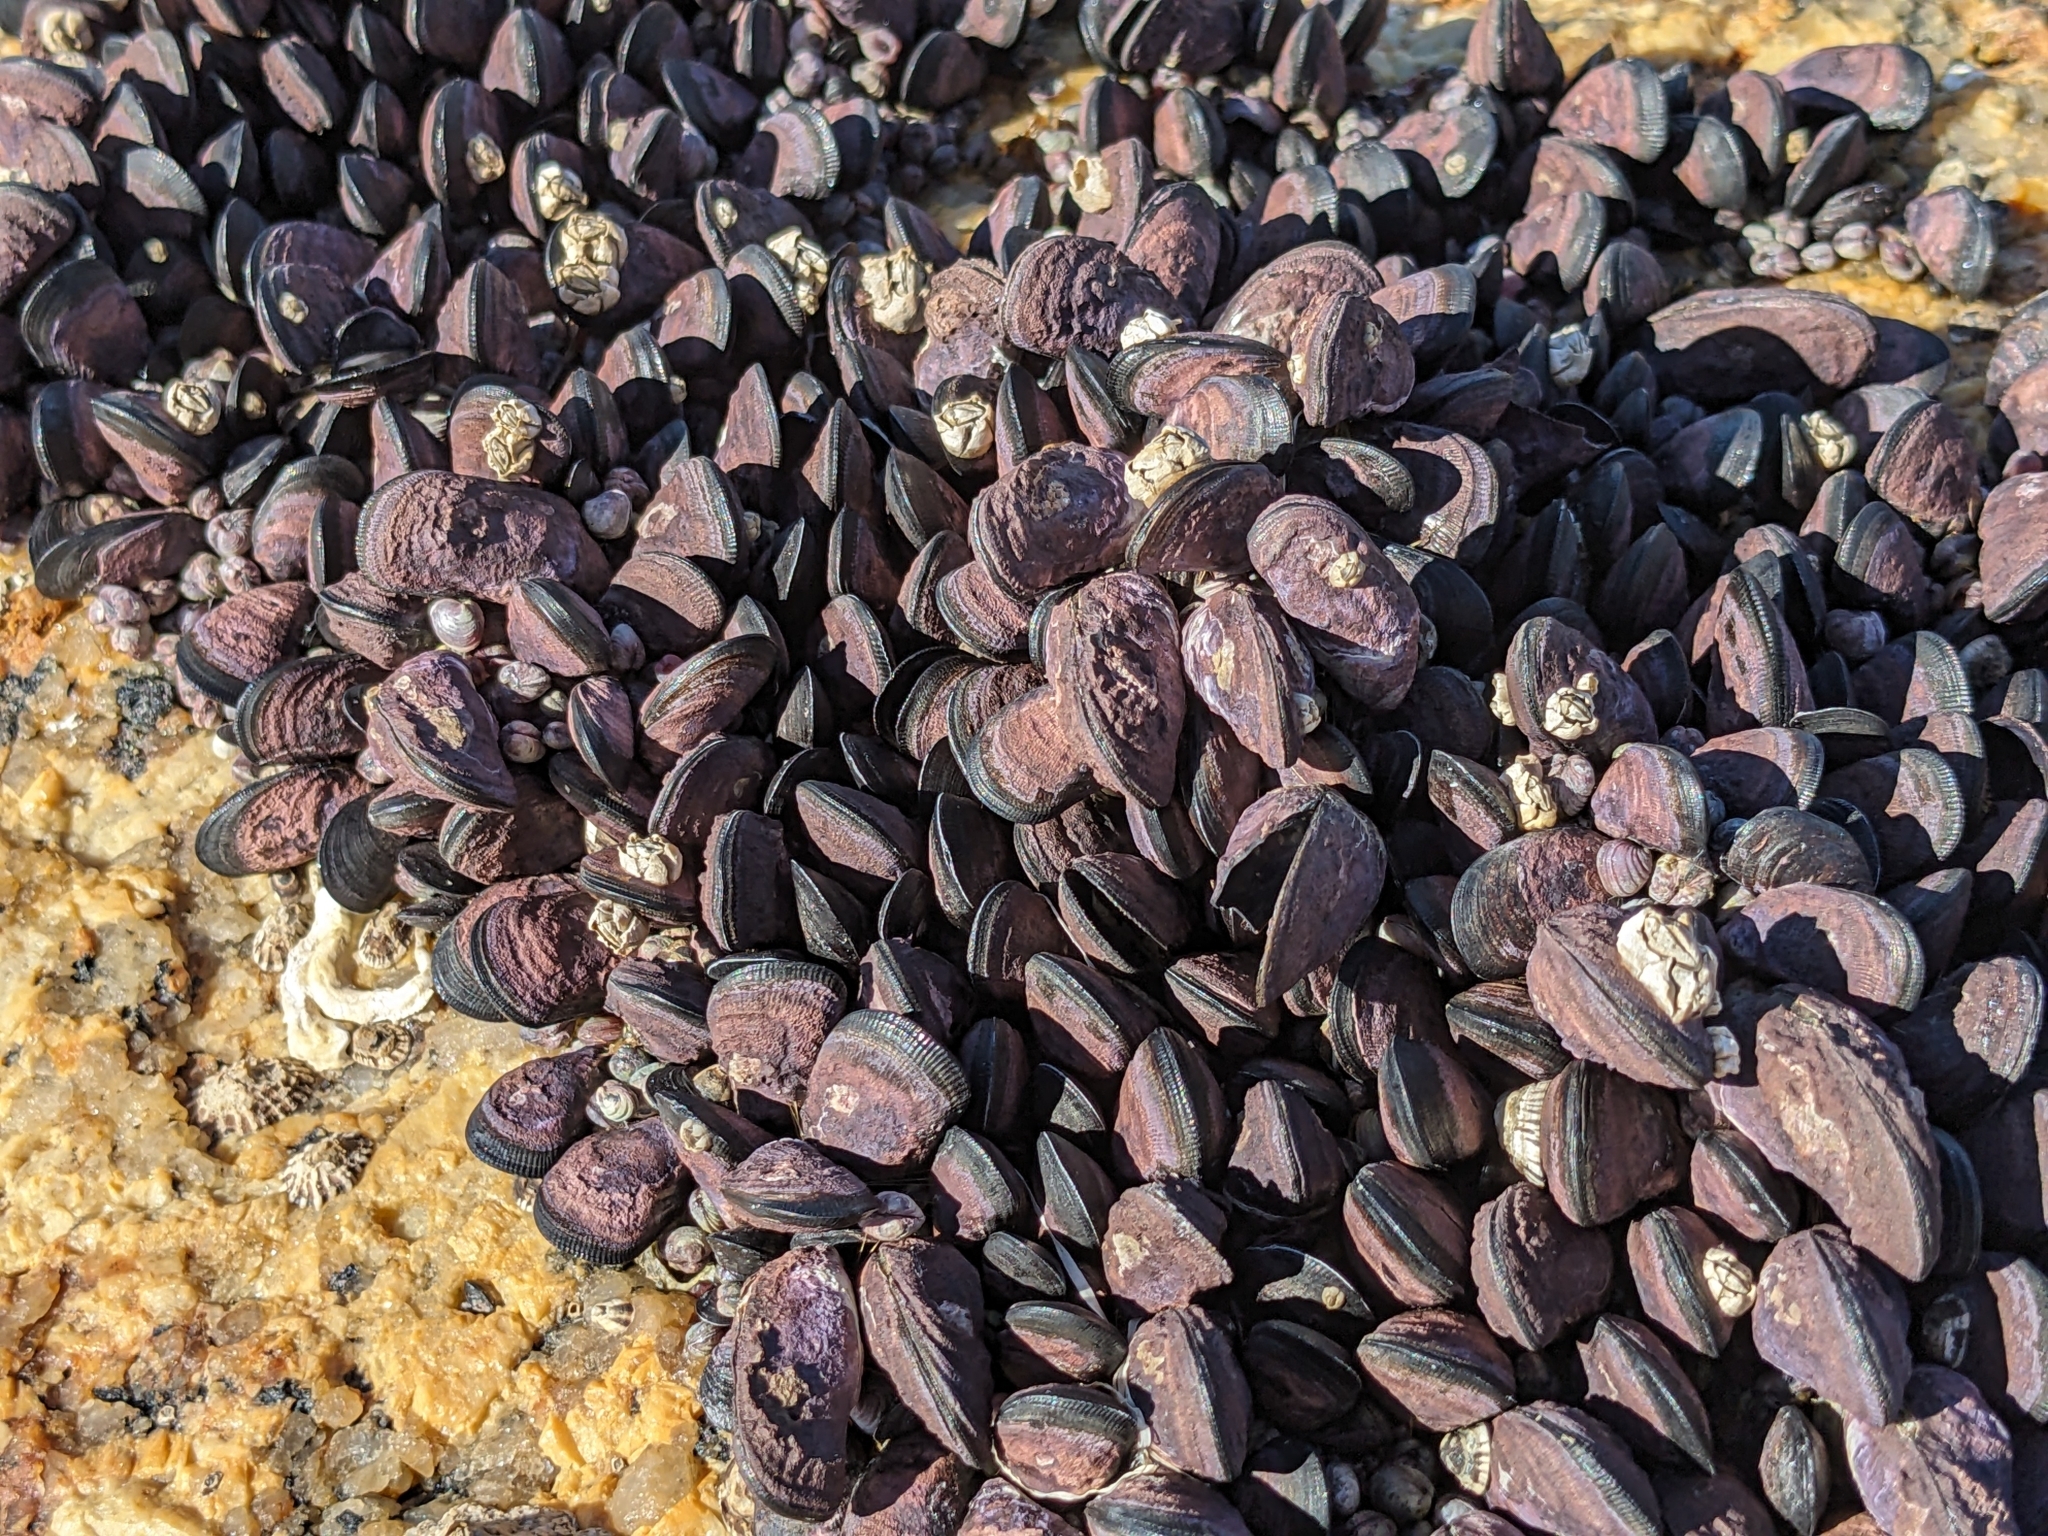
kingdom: Animalia
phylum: Mollusca
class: Bivalvia
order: Mytilida
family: Mytilidae
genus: Brachidontes
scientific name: Brachidontes rostratus
